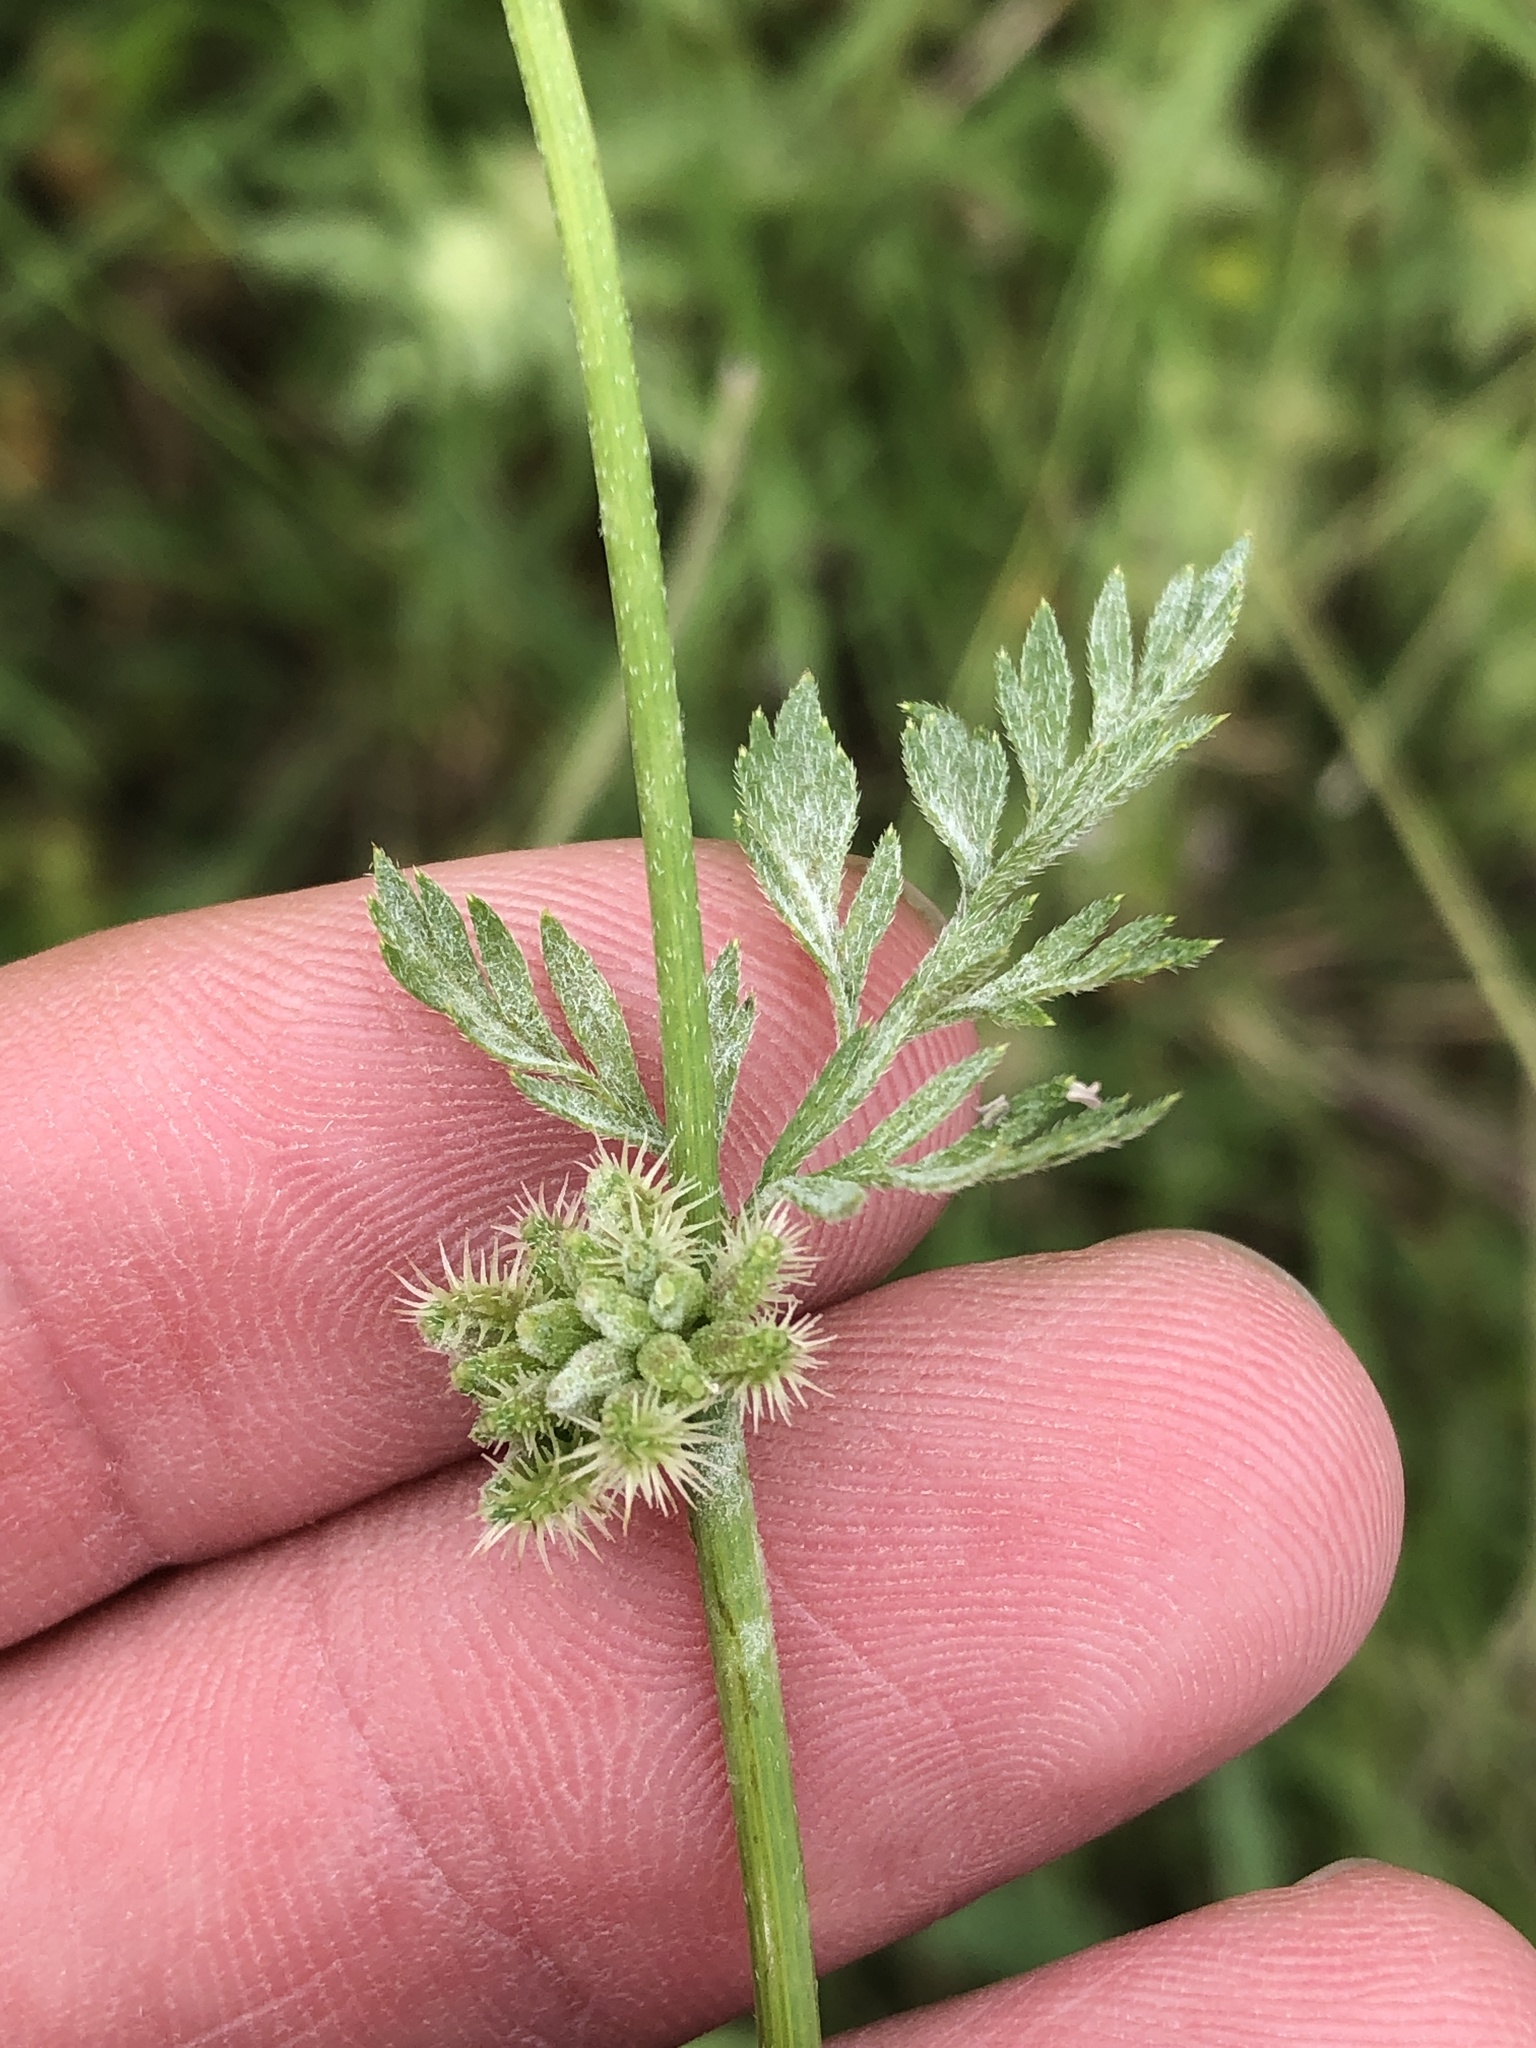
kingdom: Plantae
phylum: Tracheophyta
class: Magnoliopsida
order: Apiales
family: Apiaceae
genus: Torilis
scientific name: Torilis nodosa
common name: Knotted hedge-parsley
